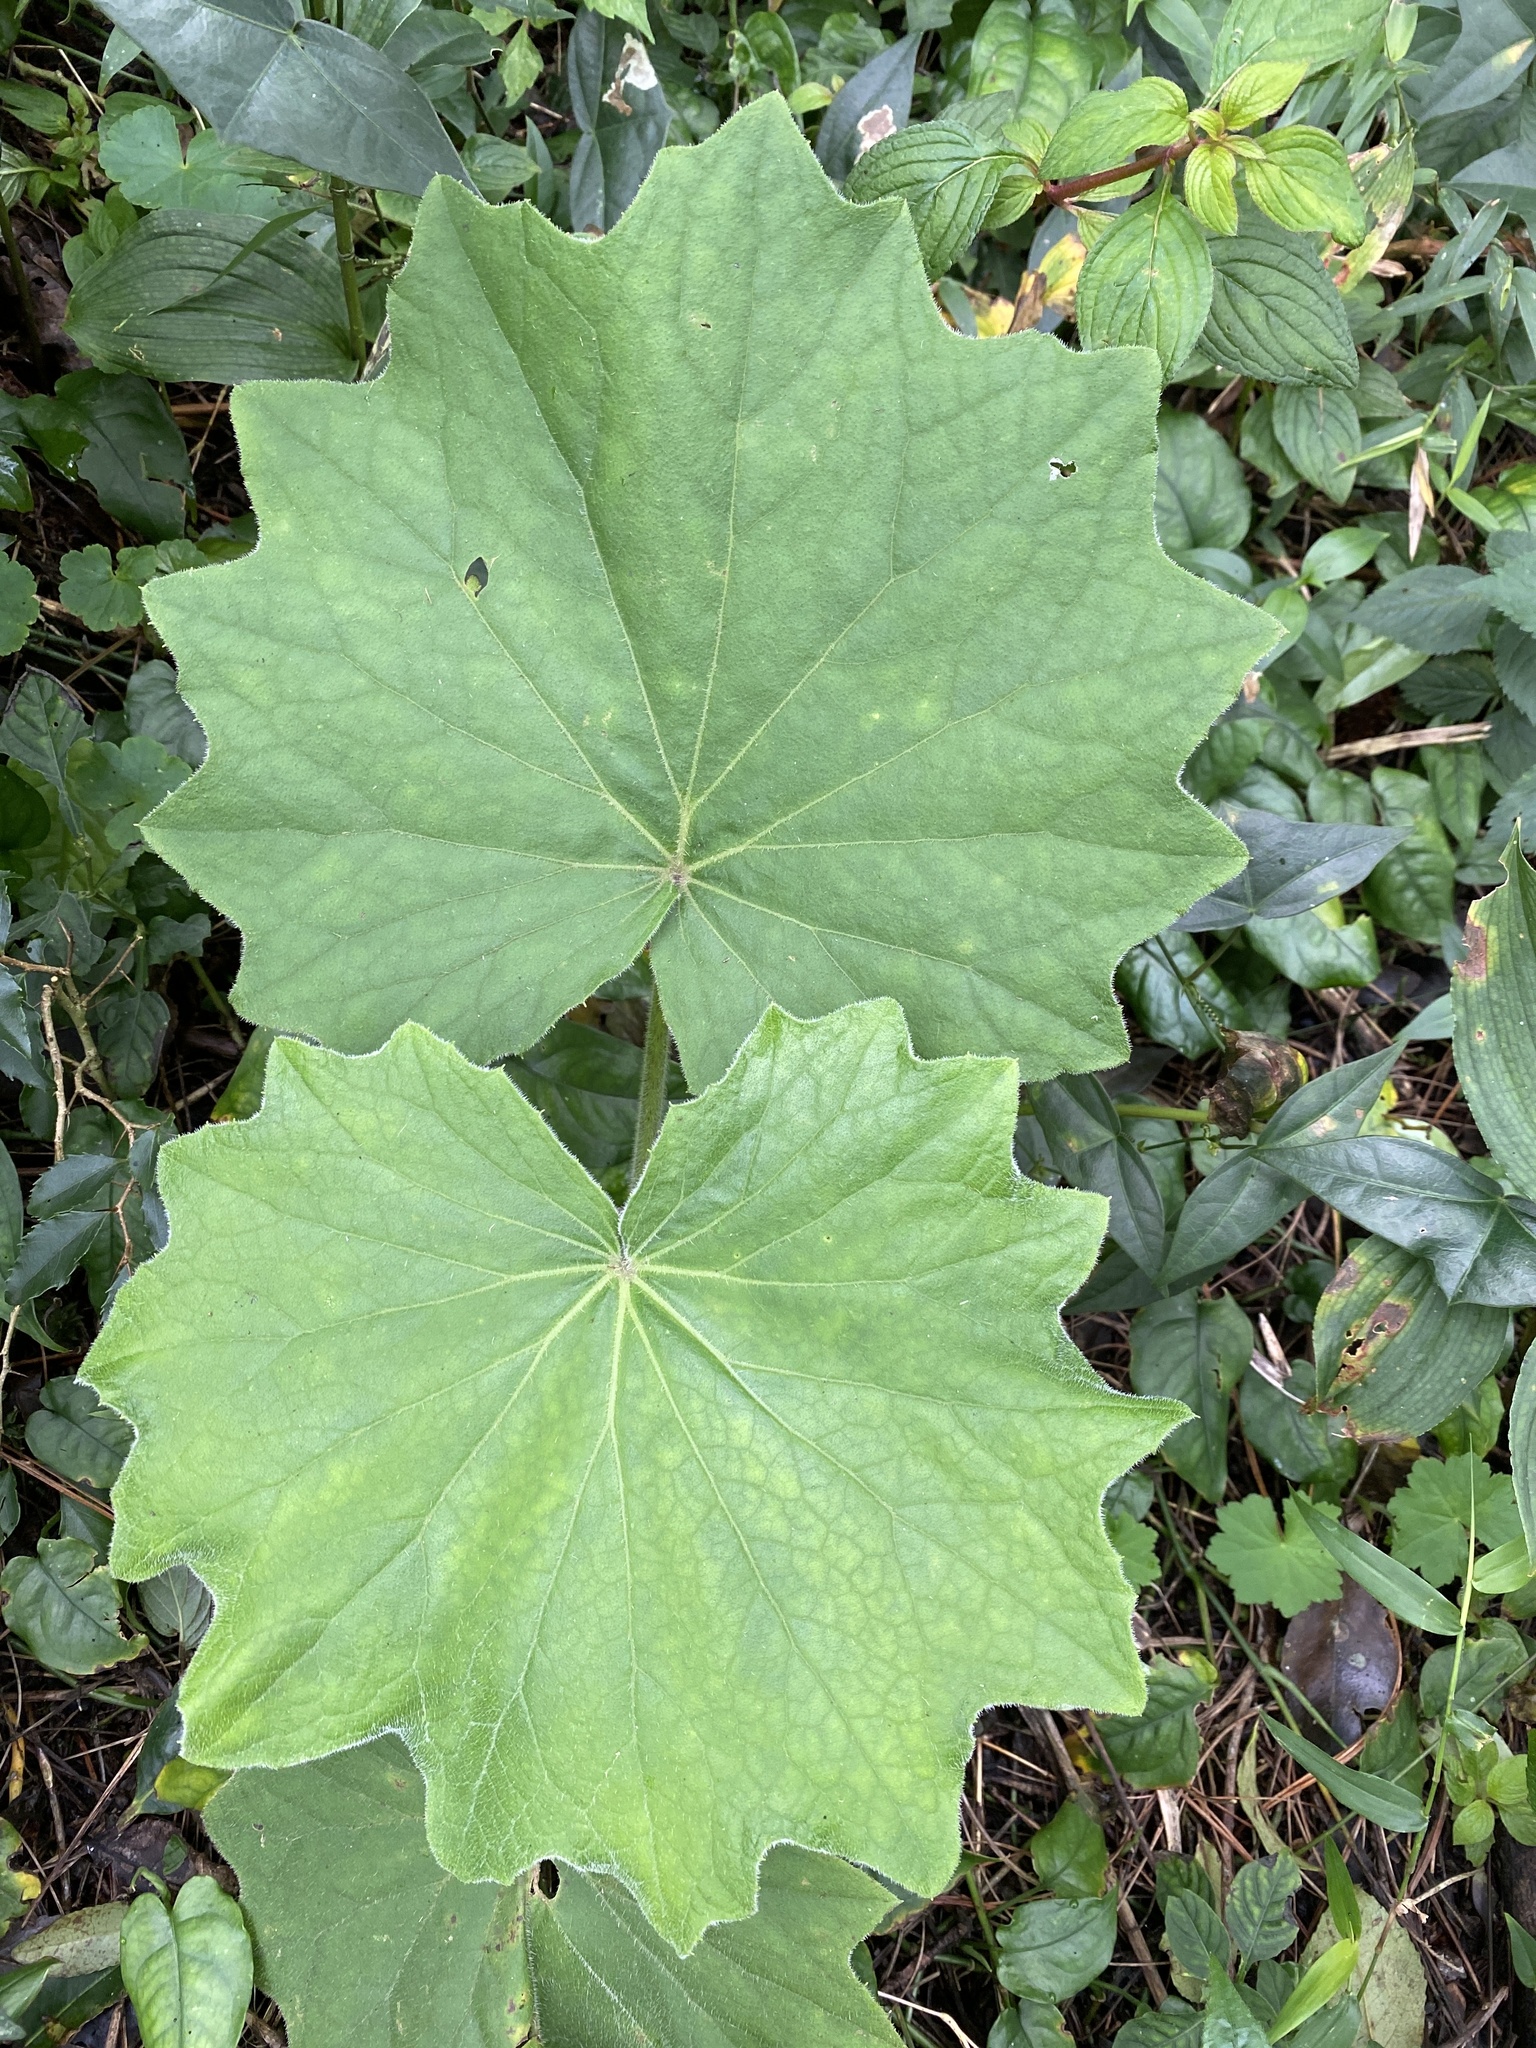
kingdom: Plantae
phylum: Tracheophyta
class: Magnoliopsida
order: Asterales
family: Asteraceae
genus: Roldana
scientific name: Roldana gilgii
